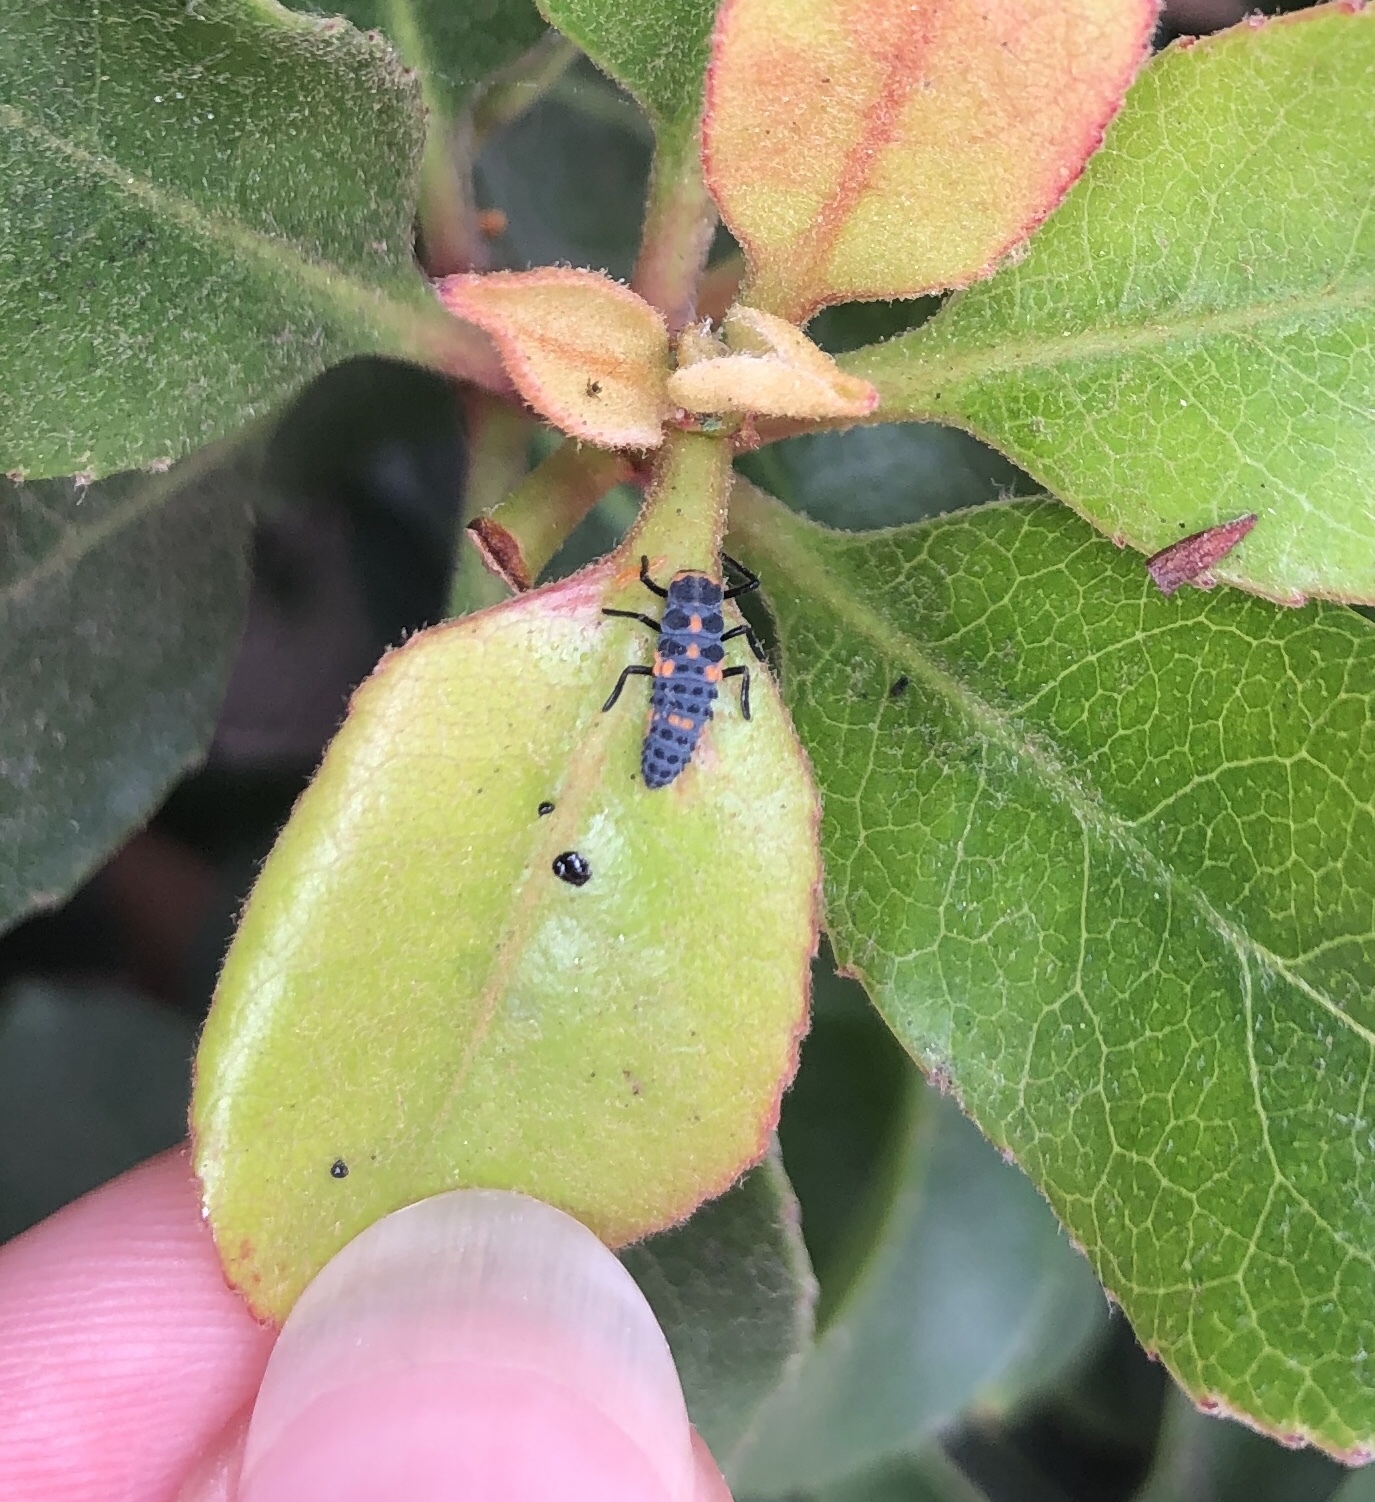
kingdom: Animalia
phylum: Arthropoda
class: Insecta
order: Coleoptera
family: Coccinellidae
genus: Hippodamia
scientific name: Hippodamia convergens
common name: Convergent lady beetle
